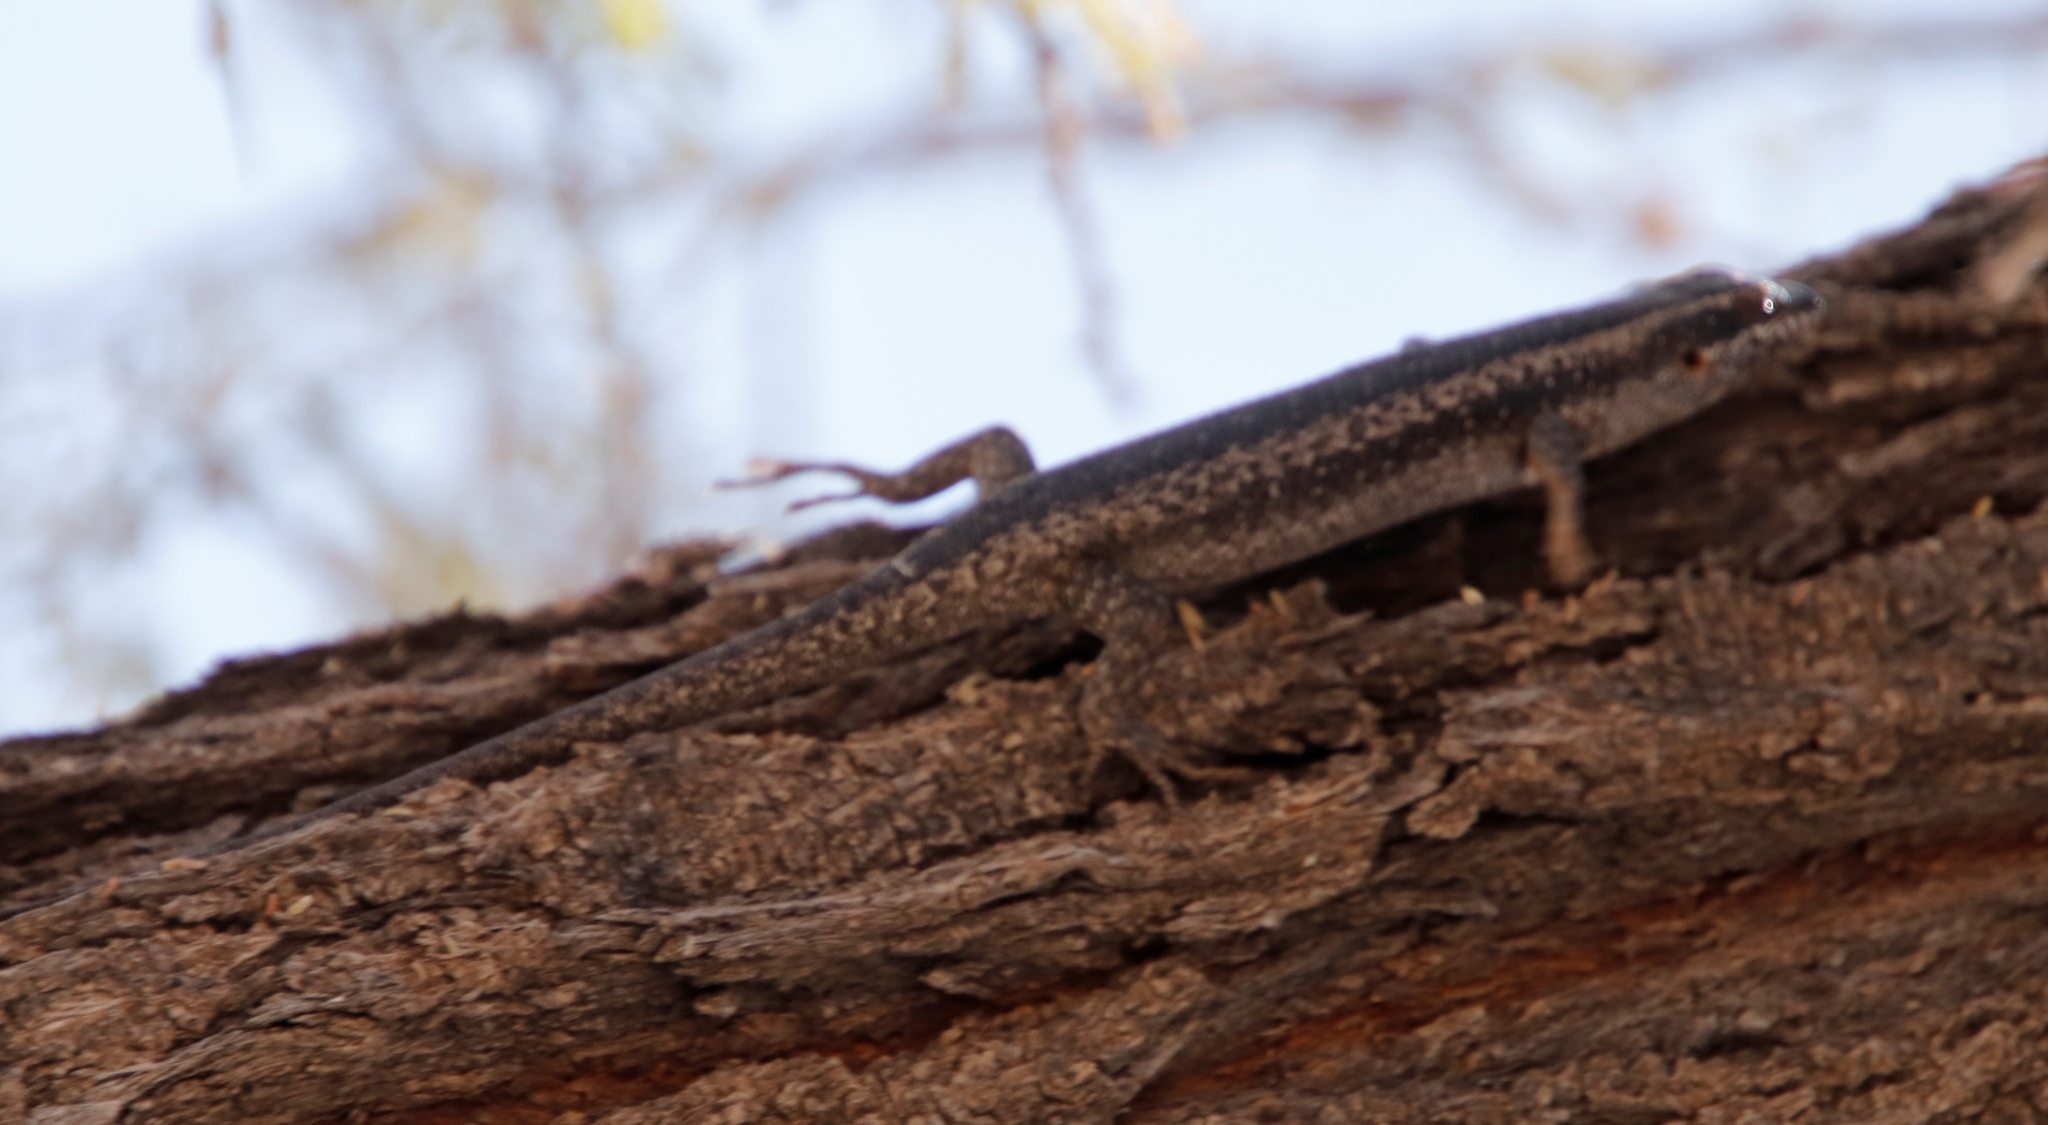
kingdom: Animalia
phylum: Chordata
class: Squamata
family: Scincidae
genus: Trachylepis
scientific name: Trachylepis spilogaster
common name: Kalahari tree skink
